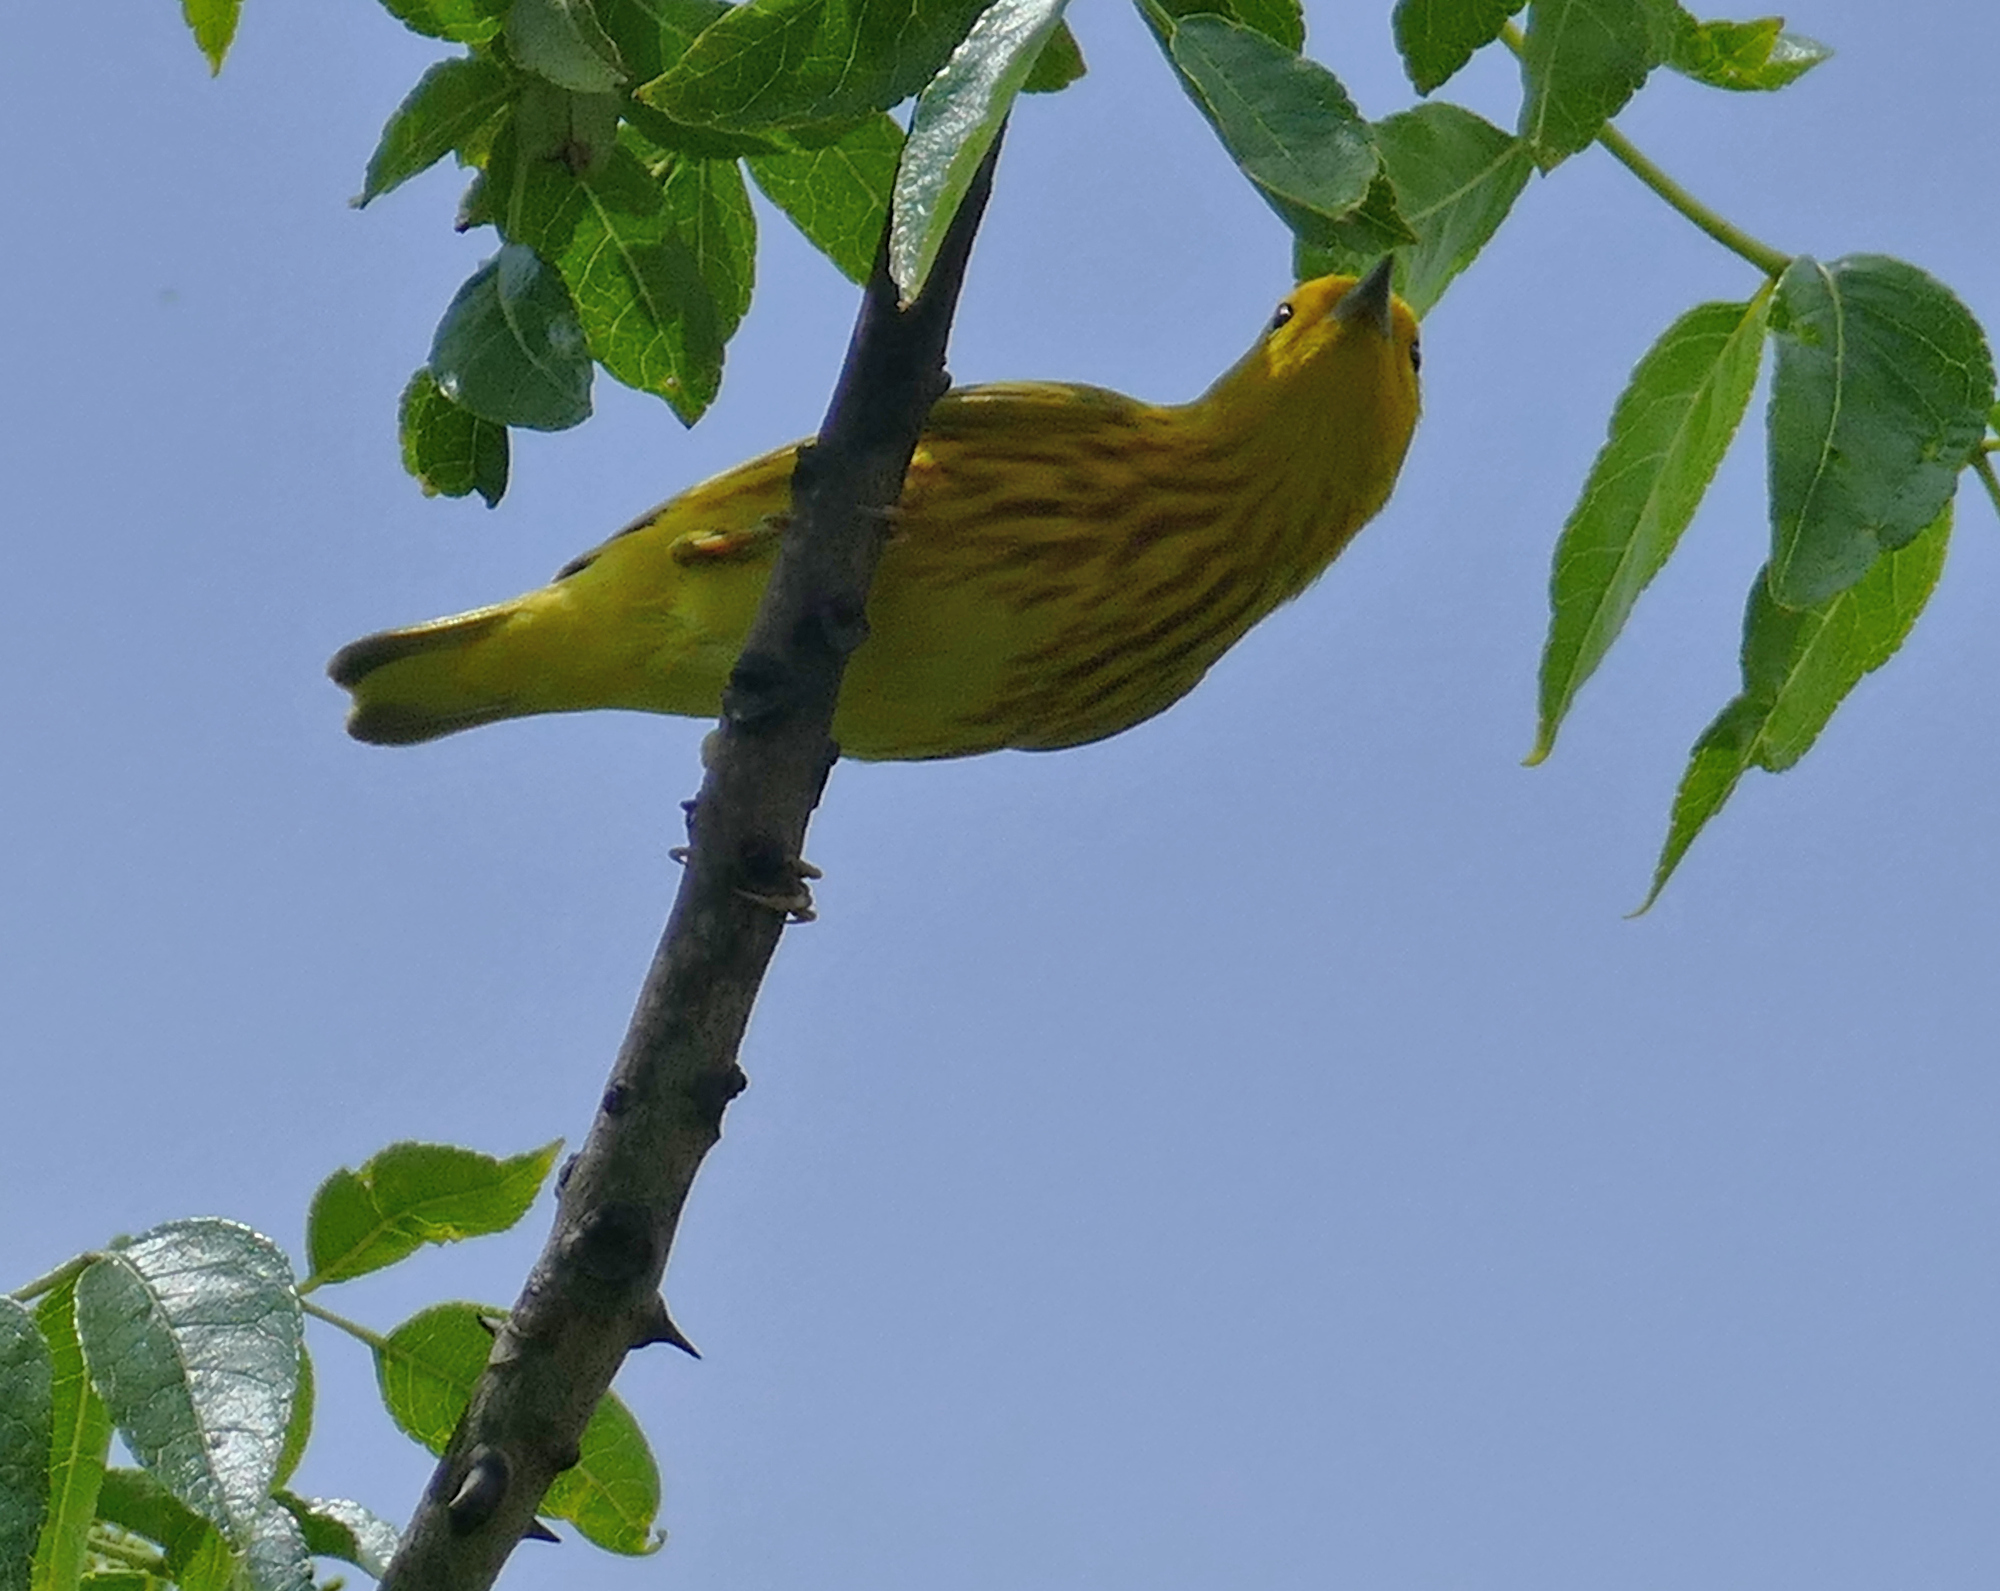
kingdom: Animalia
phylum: Chordata
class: Aves
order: Passeriformes
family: Parulidae
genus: Setophaga
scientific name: Setophaga petechia
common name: Yellow warbler
